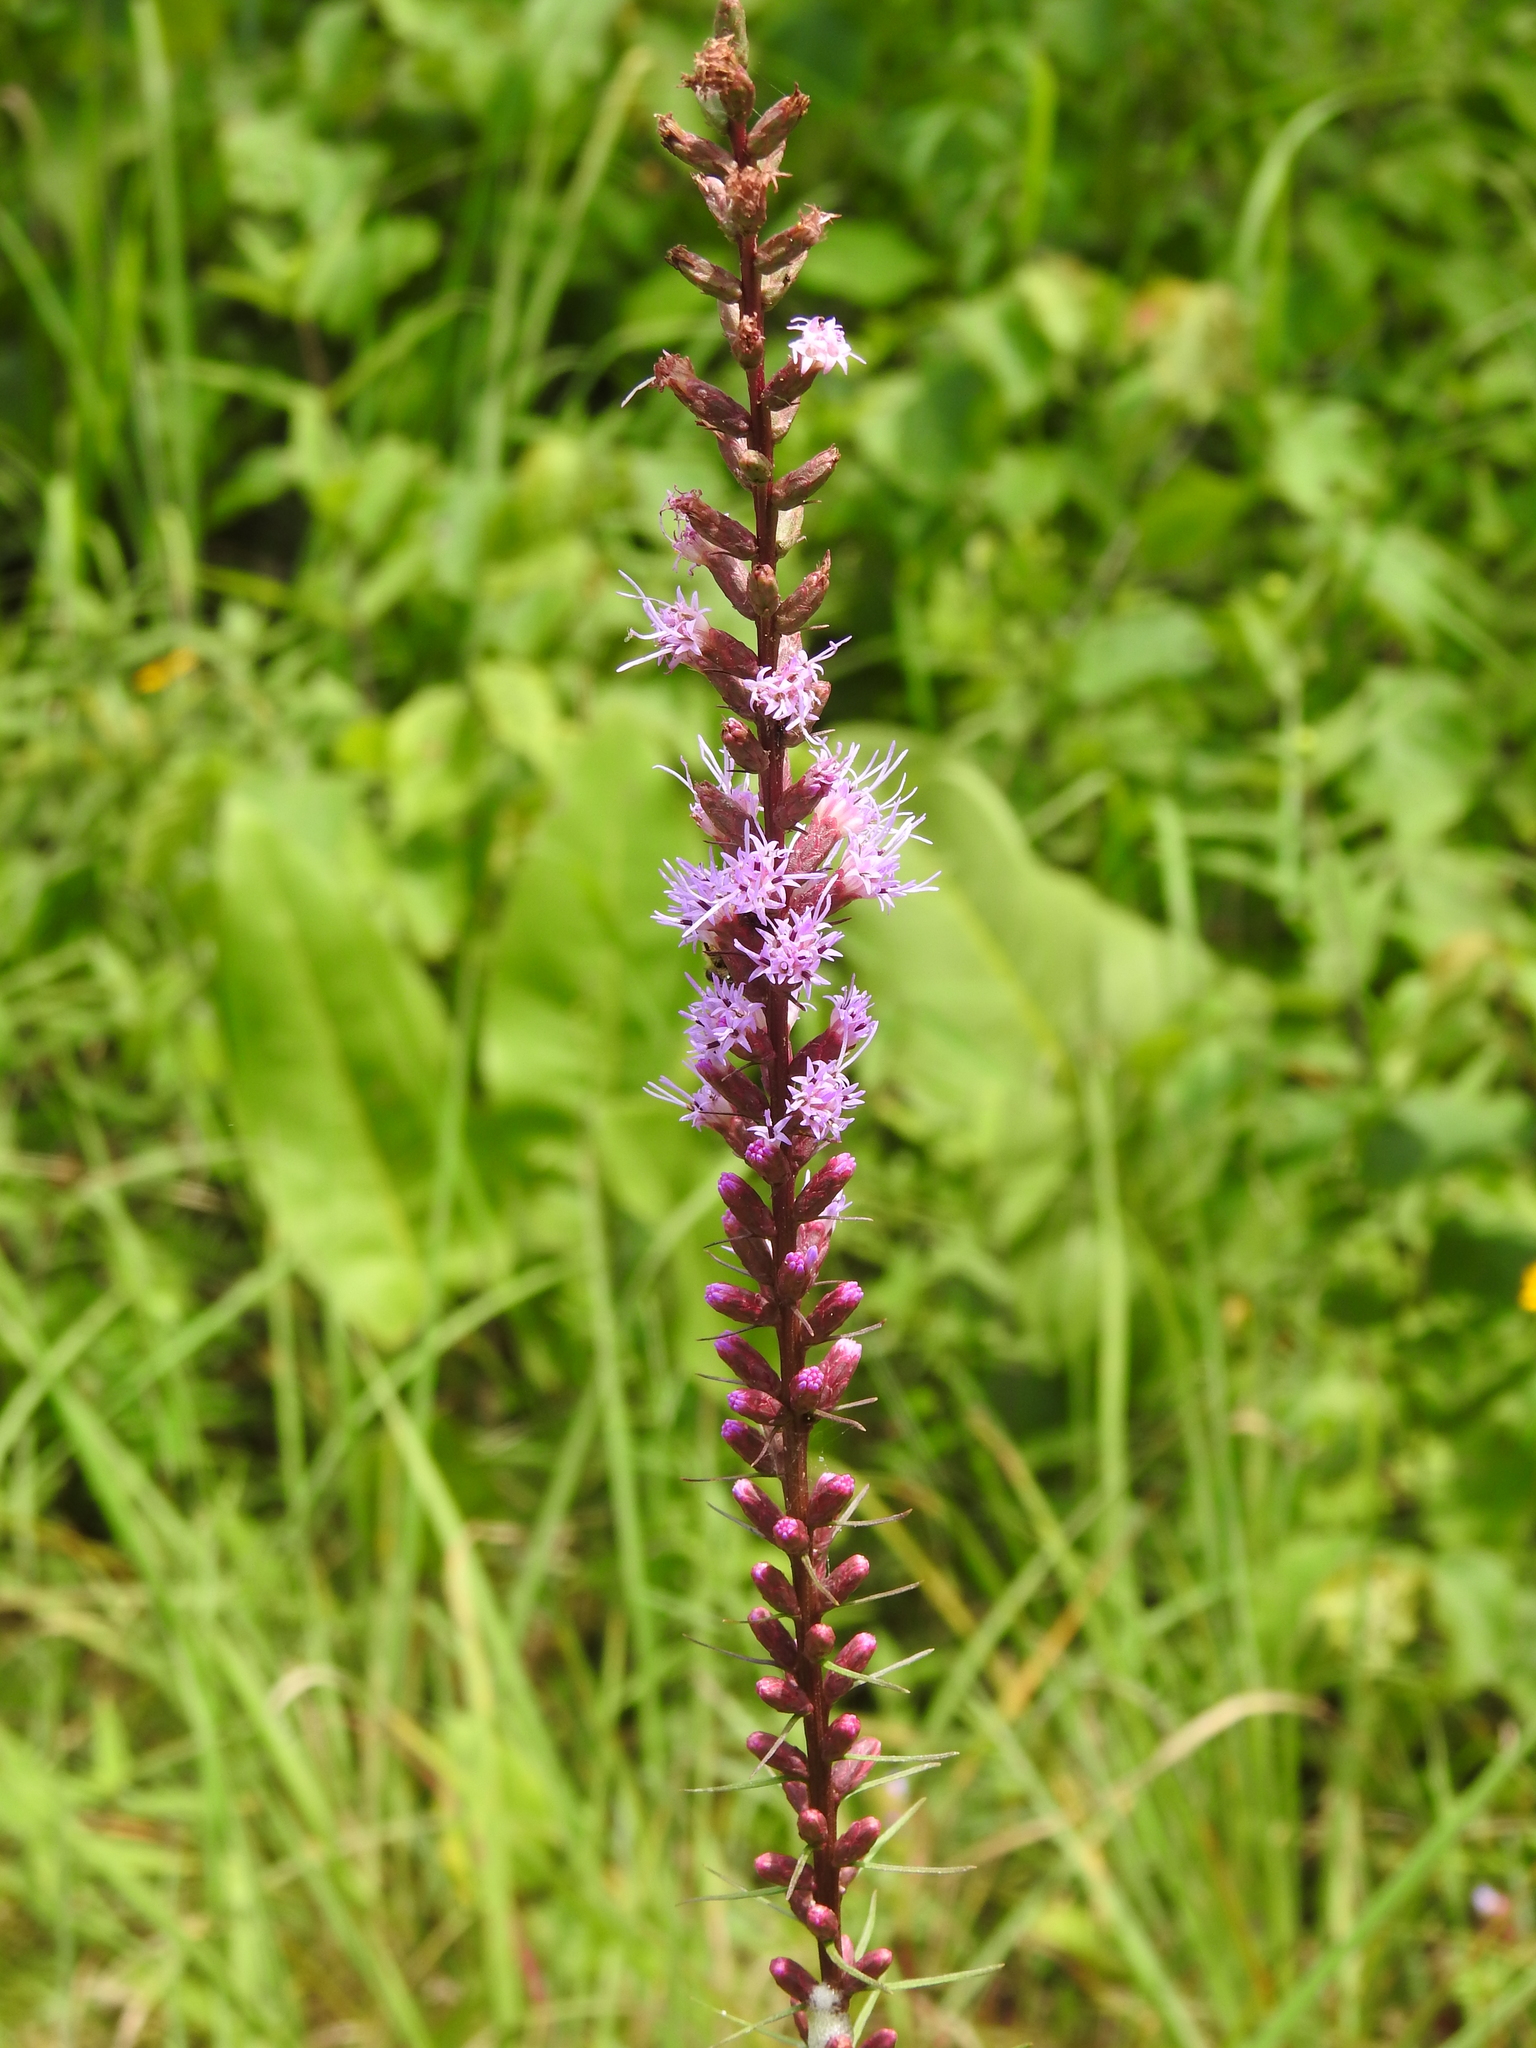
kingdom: Plantae
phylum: Tracheophyta
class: Magnoliopsida
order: Asterales
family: Asteraceae
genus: Liatris
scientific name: Liatris spicata
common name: Florist gayfeather
